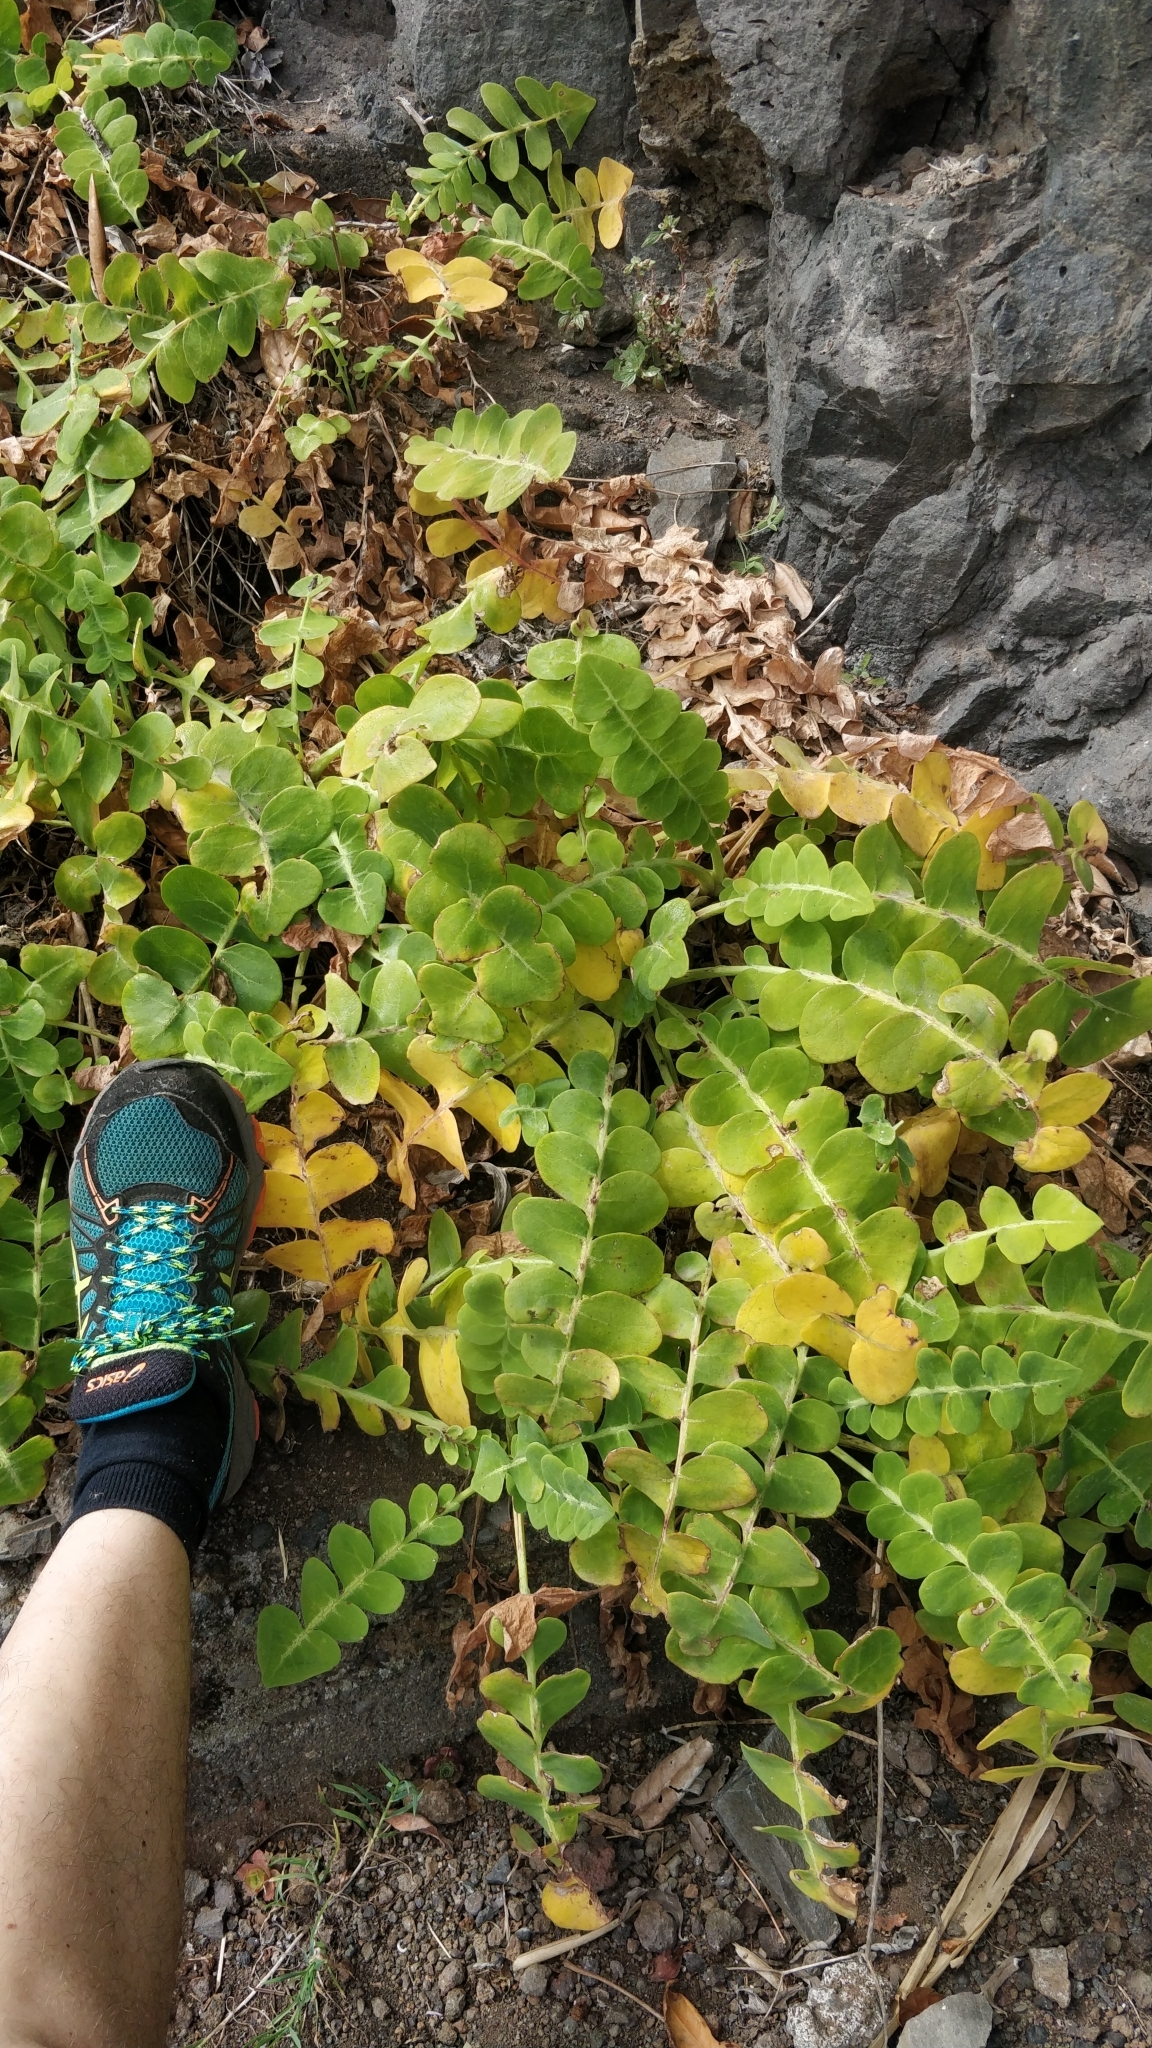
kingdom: Plantae
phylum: Tracheophyta
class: Magnoliopsida
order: Asterales
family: Asteraceae
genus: Sonchus
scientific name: Sonchus latifolius
